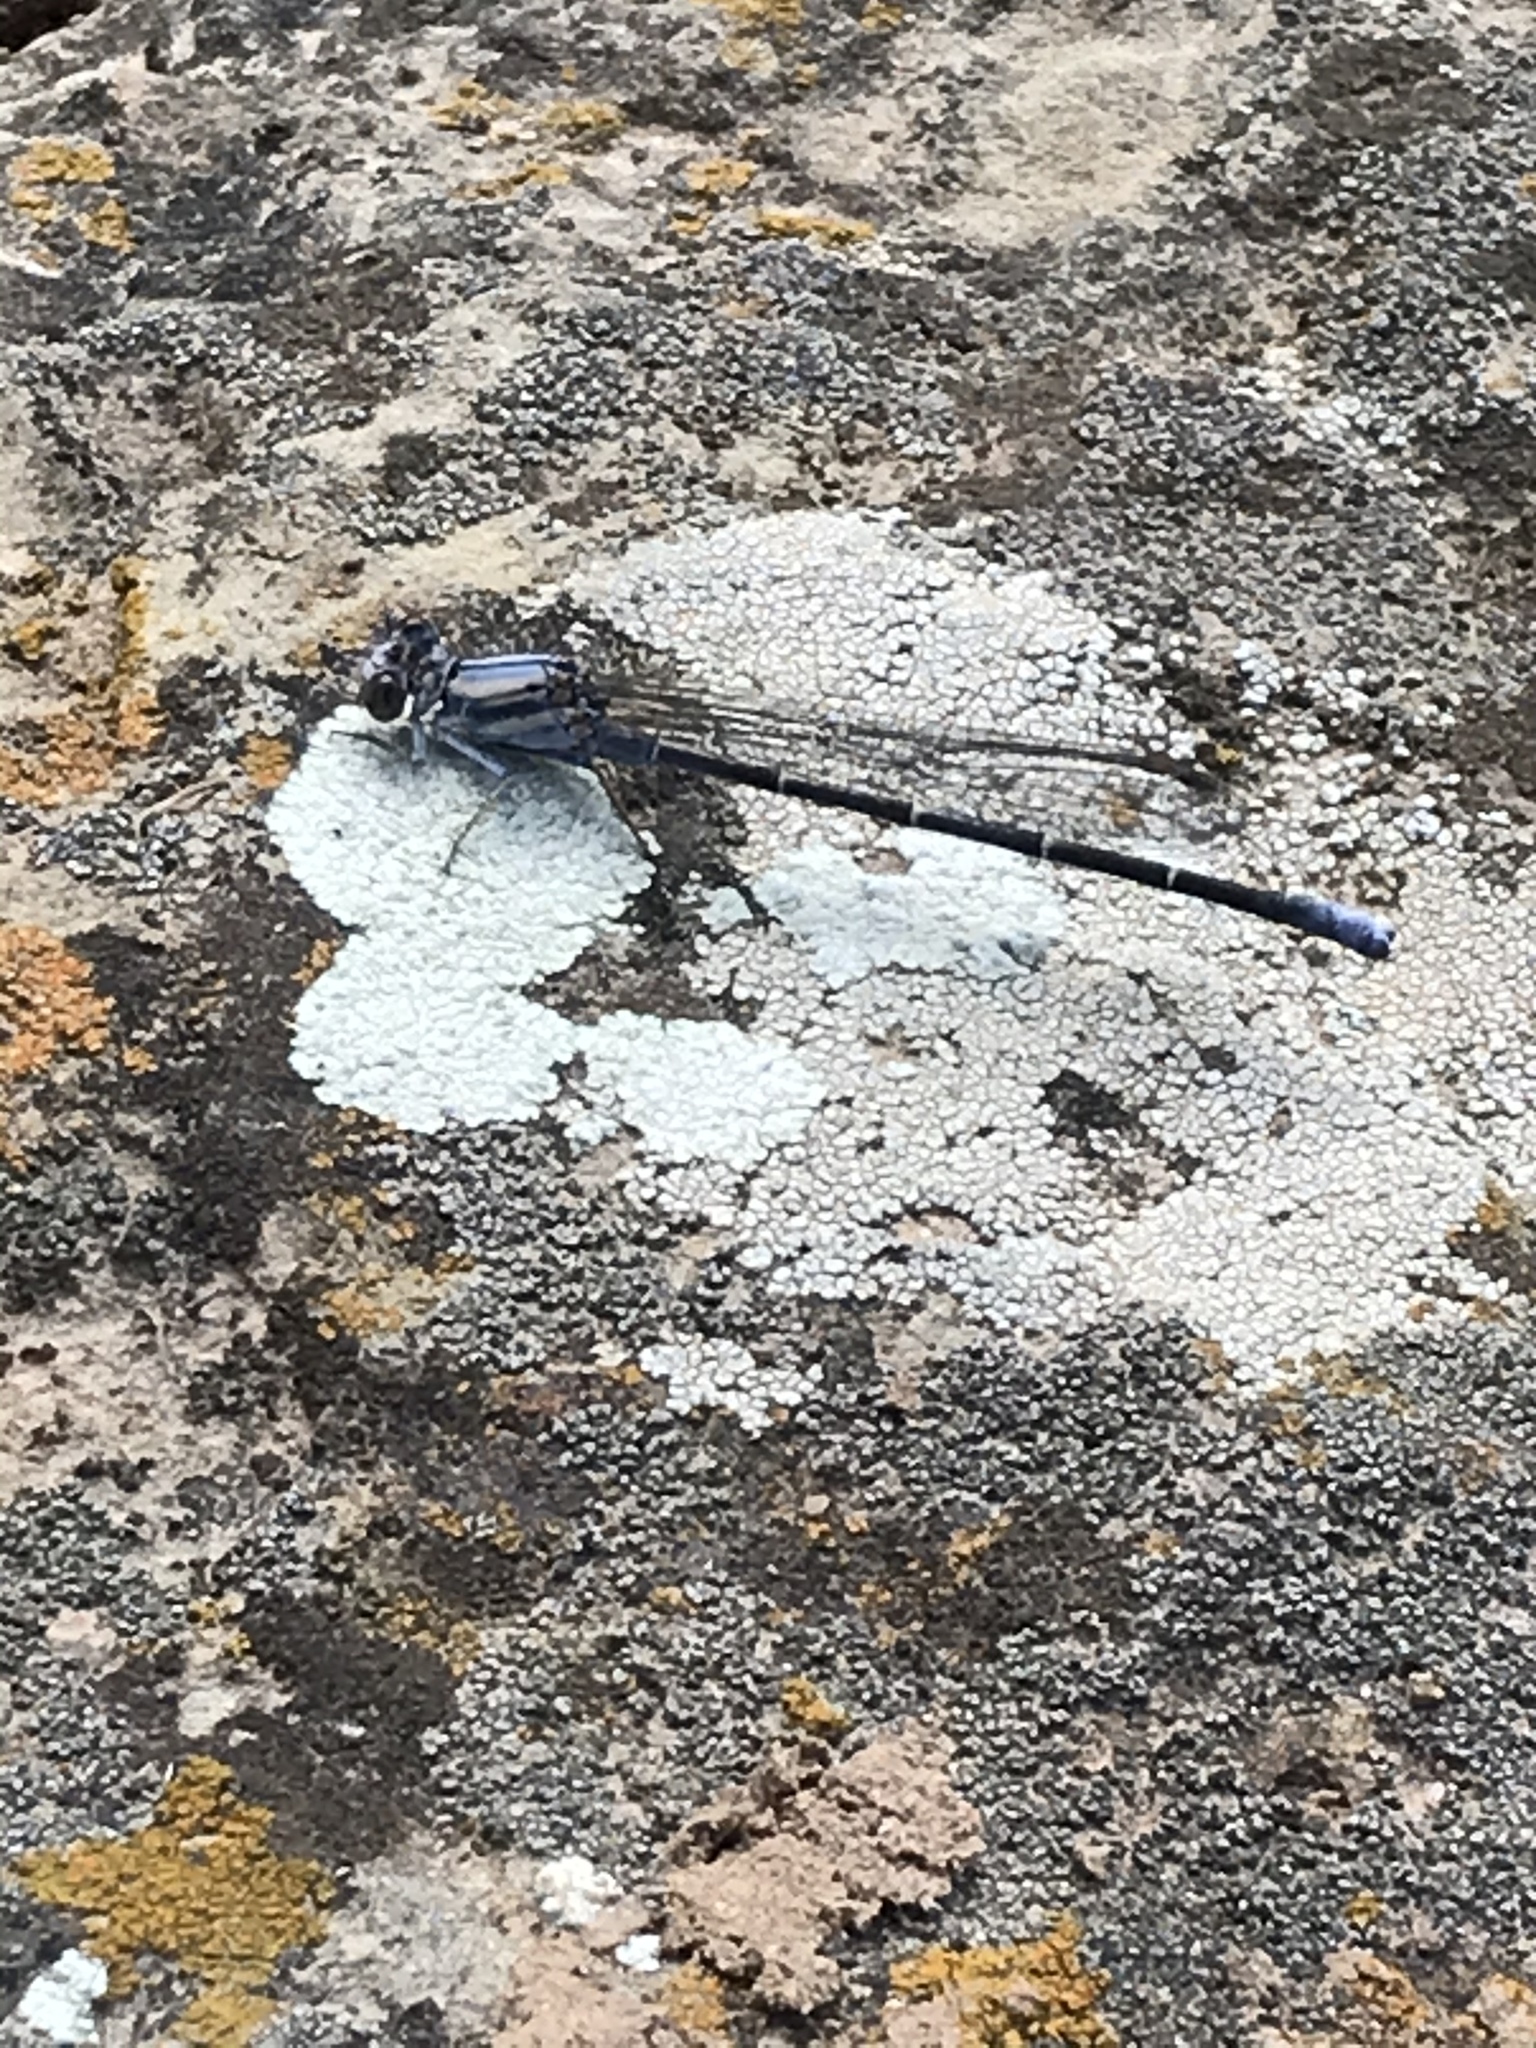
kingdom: Animalia
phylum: Arthropoda
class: Insecta
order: Odonata
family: Coenagrionidae
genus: Argia
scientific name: Argia moesta
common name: Powdered dancer
